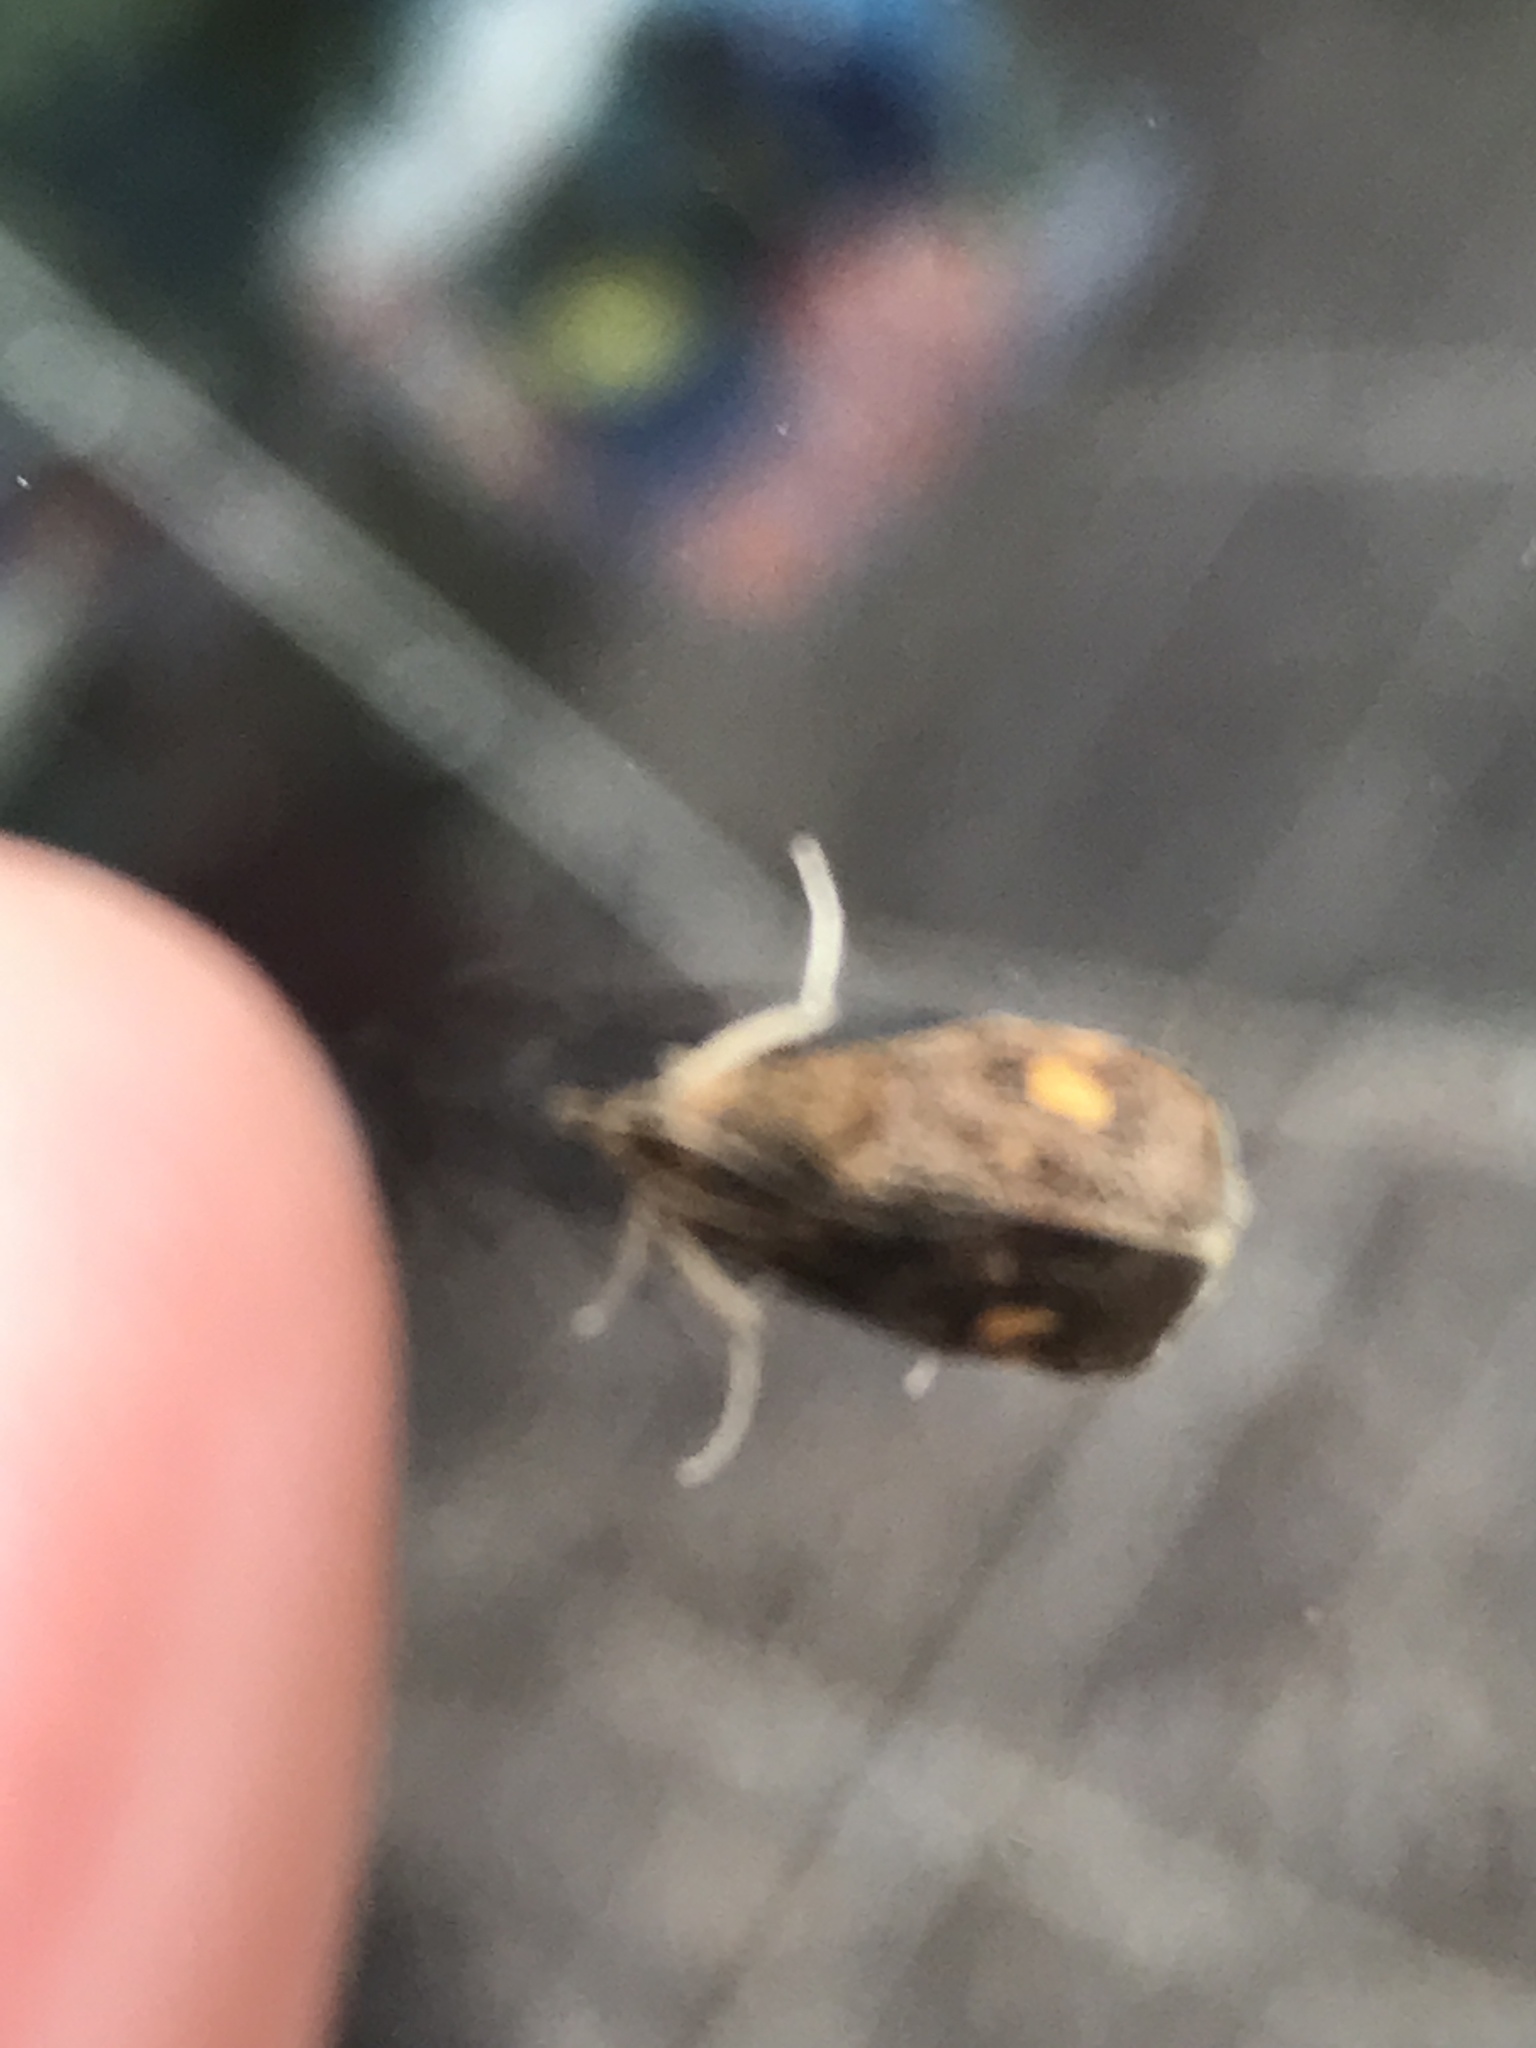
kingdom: Animalia
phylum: Arthropoda
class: Insecta
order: Lepidoptera
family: Crambidae
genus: Pyrausta
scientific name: Pyrausta aurata
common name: Small purple & gold
